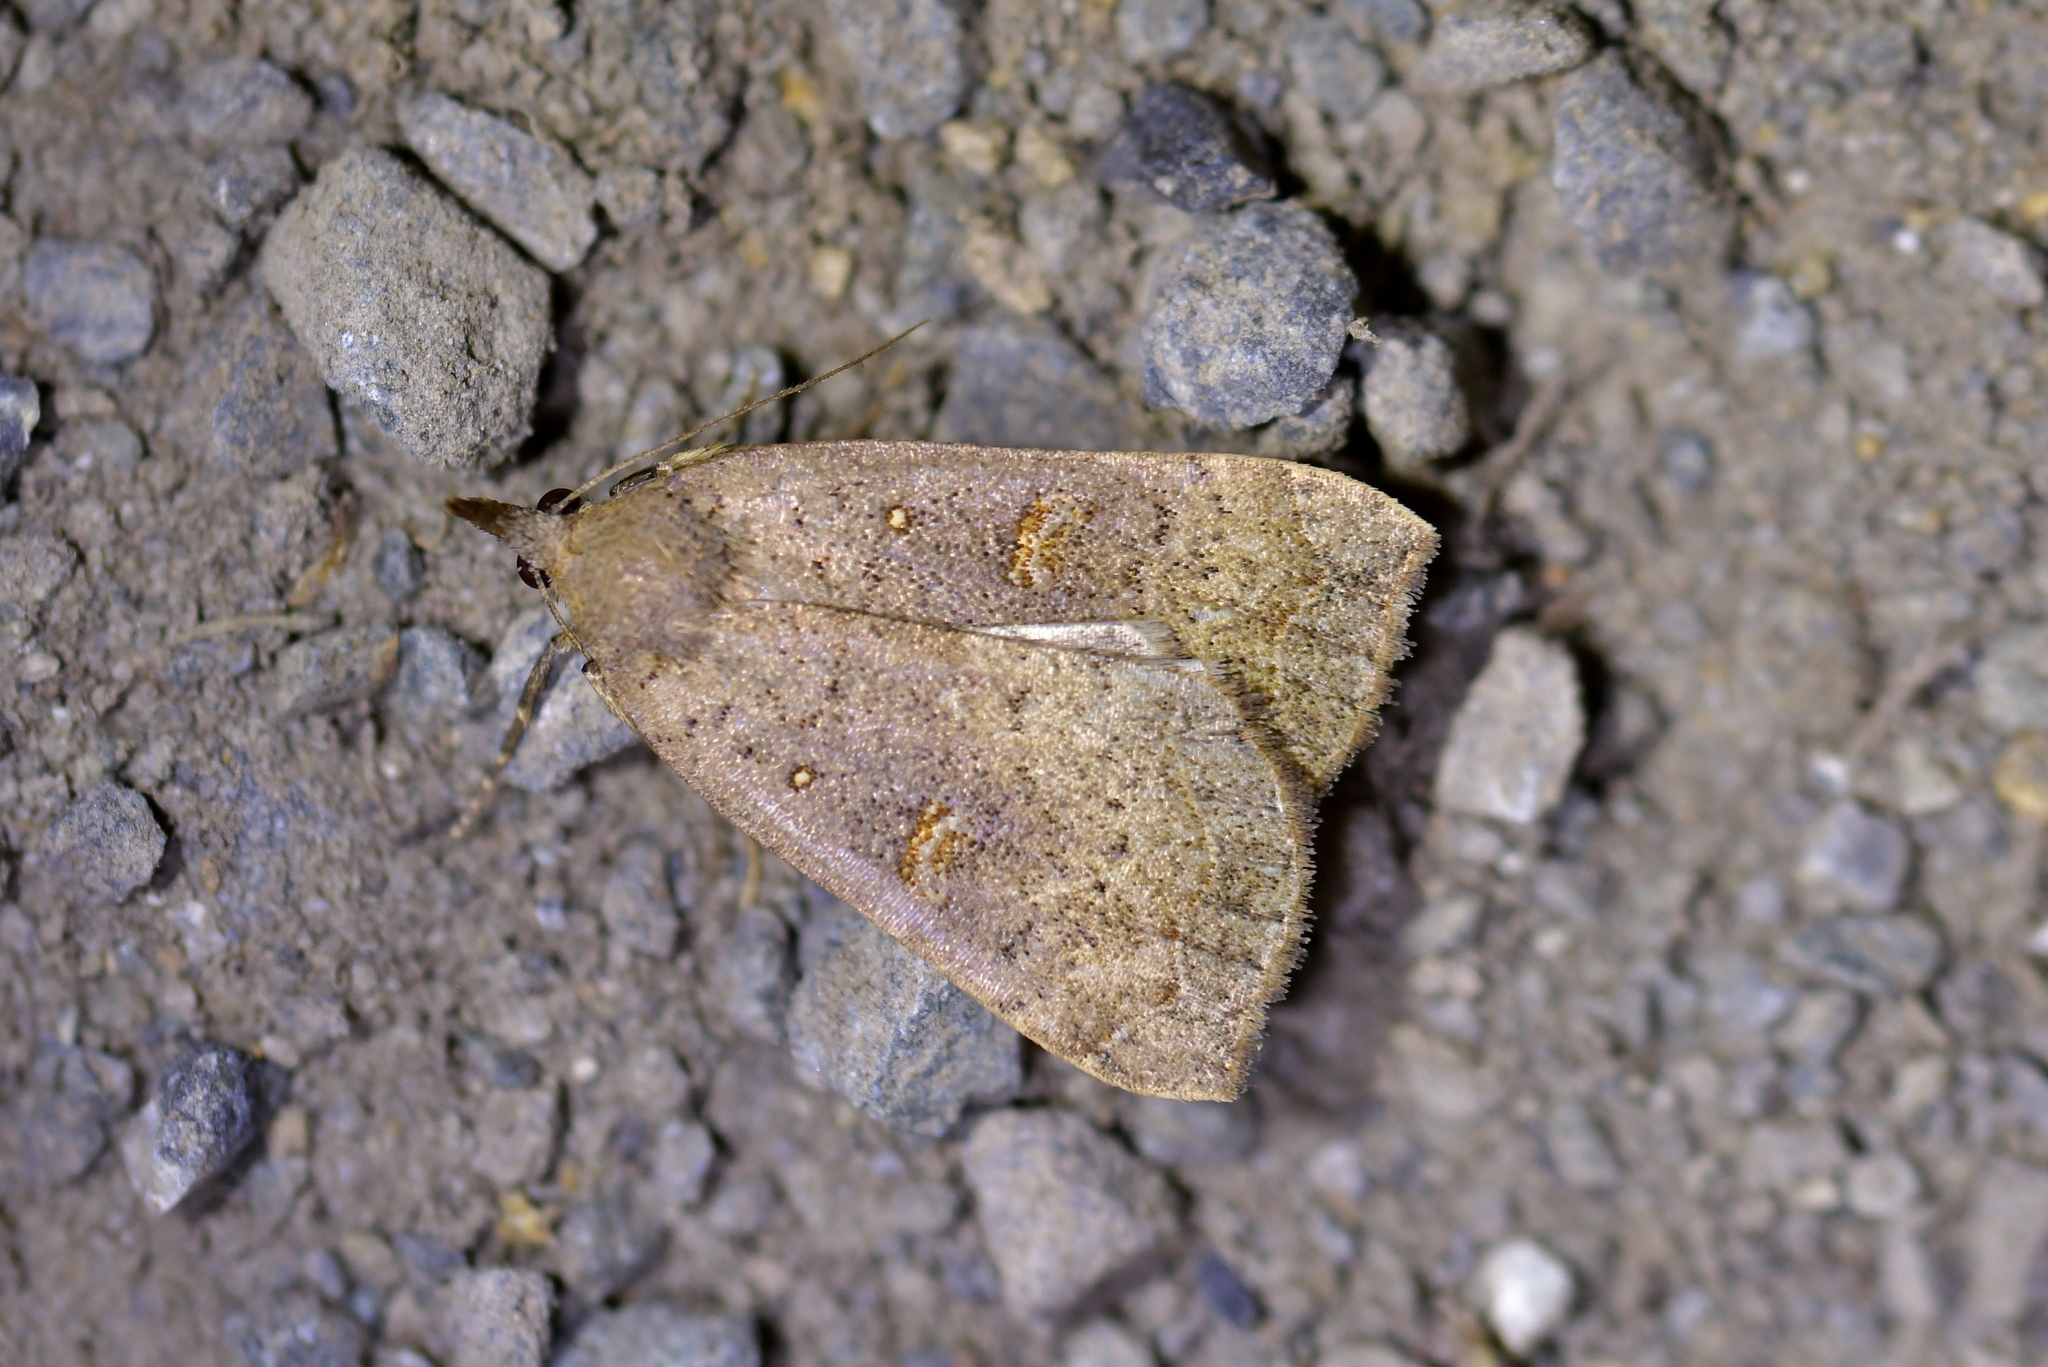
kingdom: Animalia
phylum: Arthropoda
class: Insecta
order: Lepidoptera
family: Erebidae
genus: Rhapsa
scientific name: Rhapsa scotosialis
